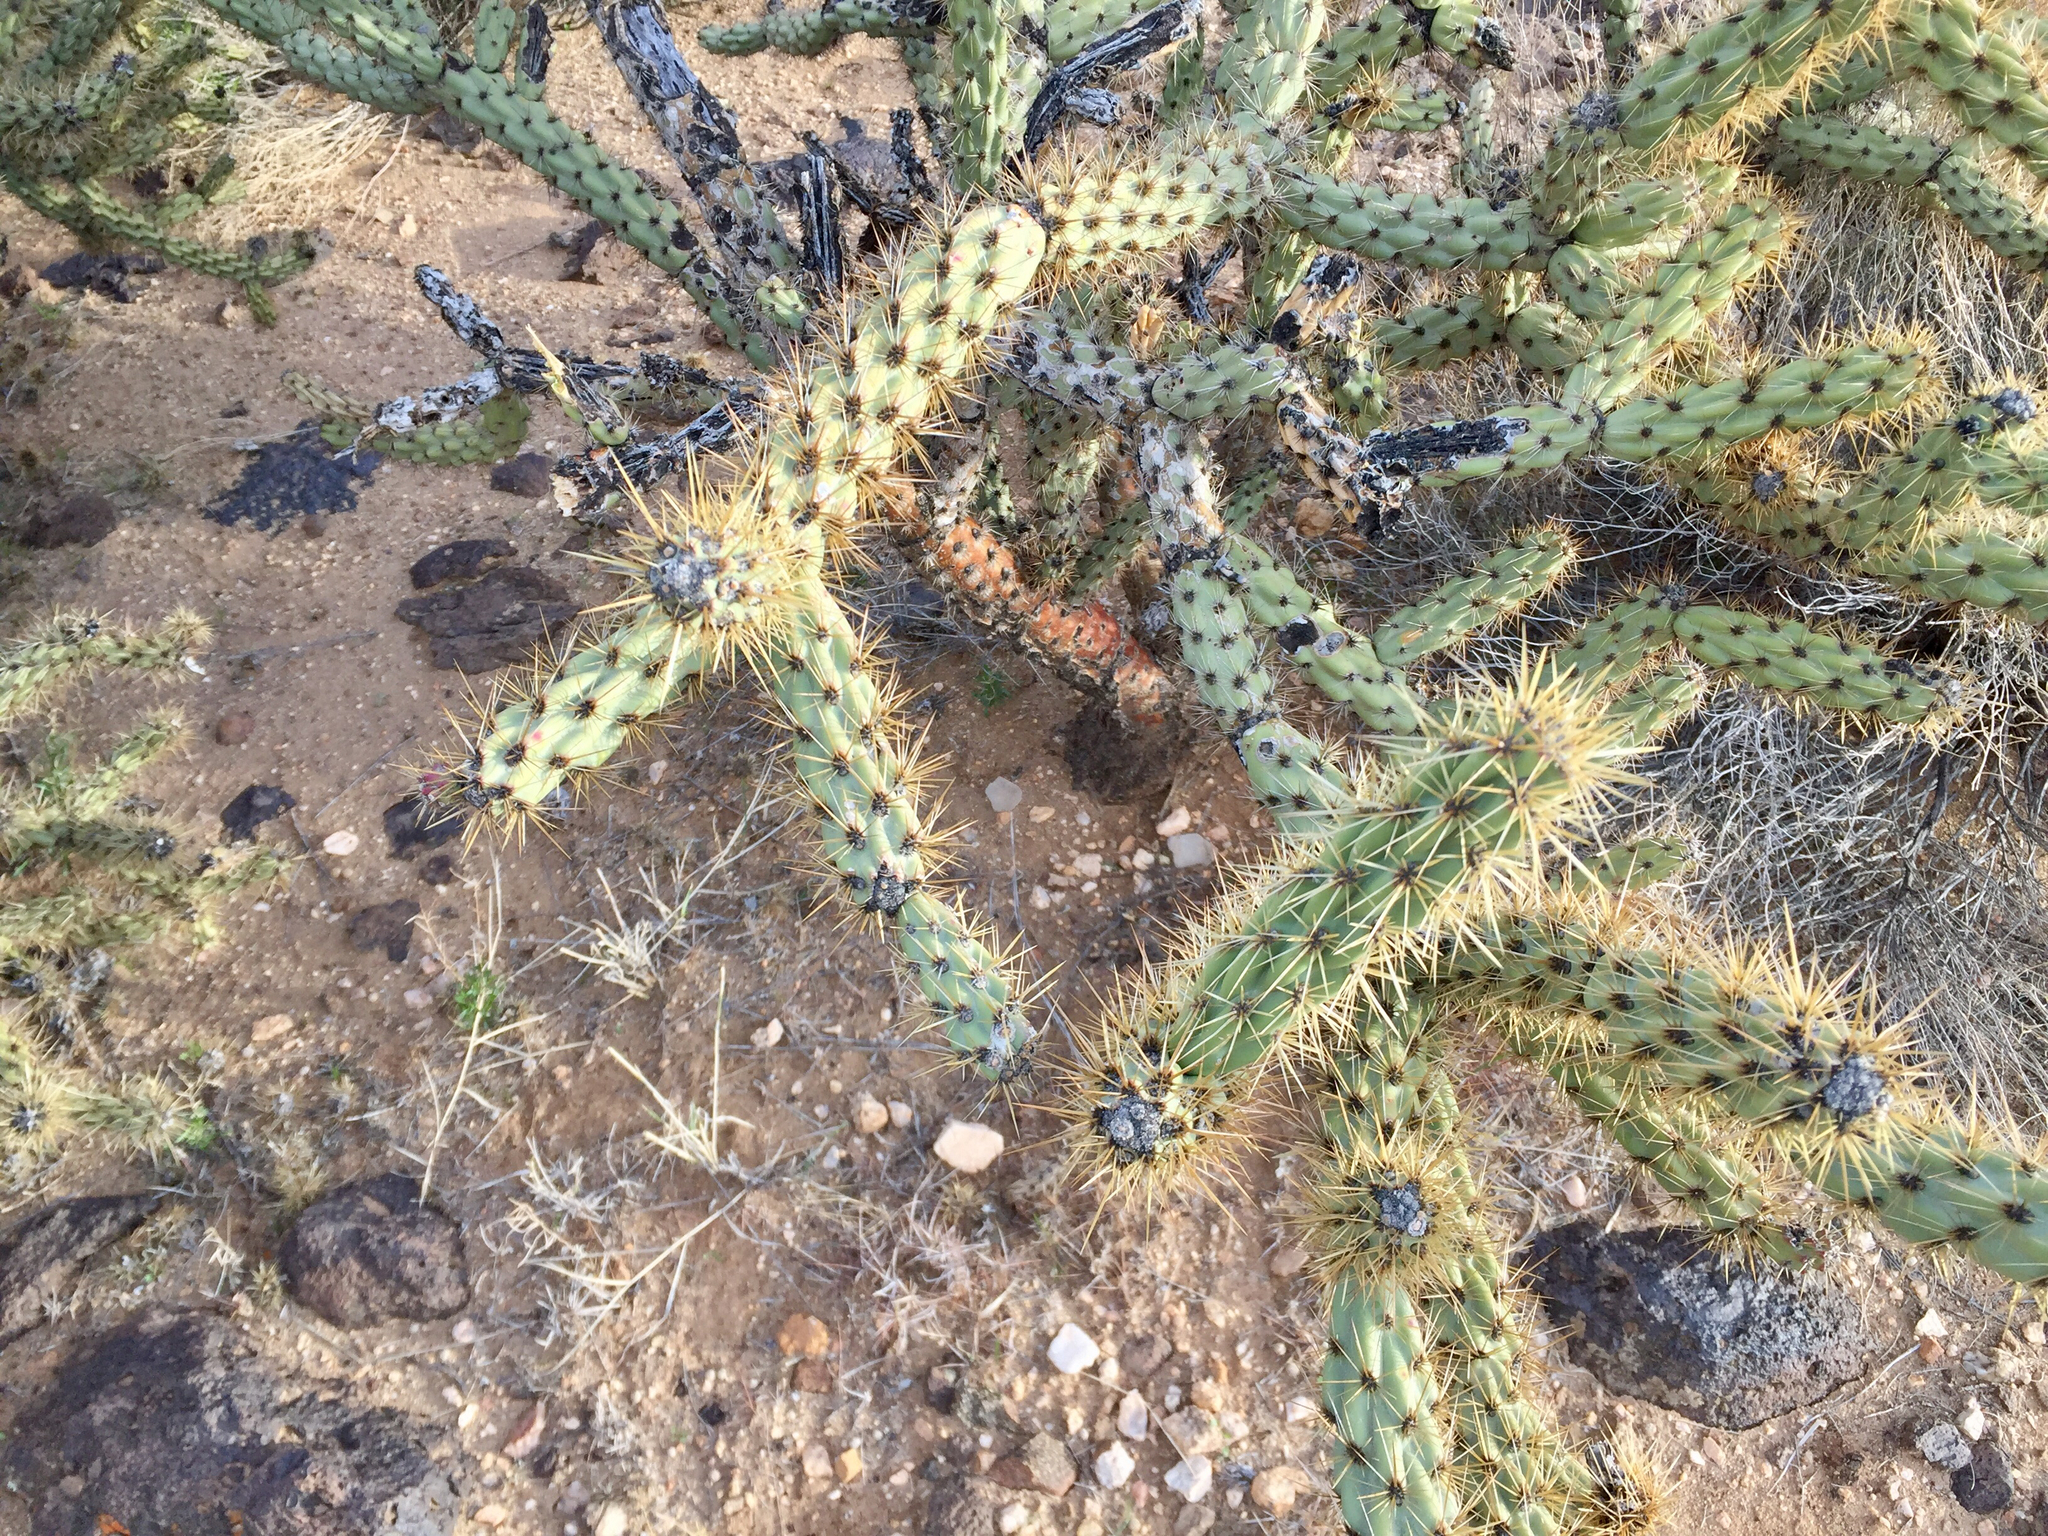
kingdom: Plantae
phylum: Tracheophyta
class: Magnoliopsida
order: Caryophyllales
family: Cactaceae
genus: Cylindropuntia
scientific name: Cylindropuntia acanthocarpa
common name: Buckhorn cholla
